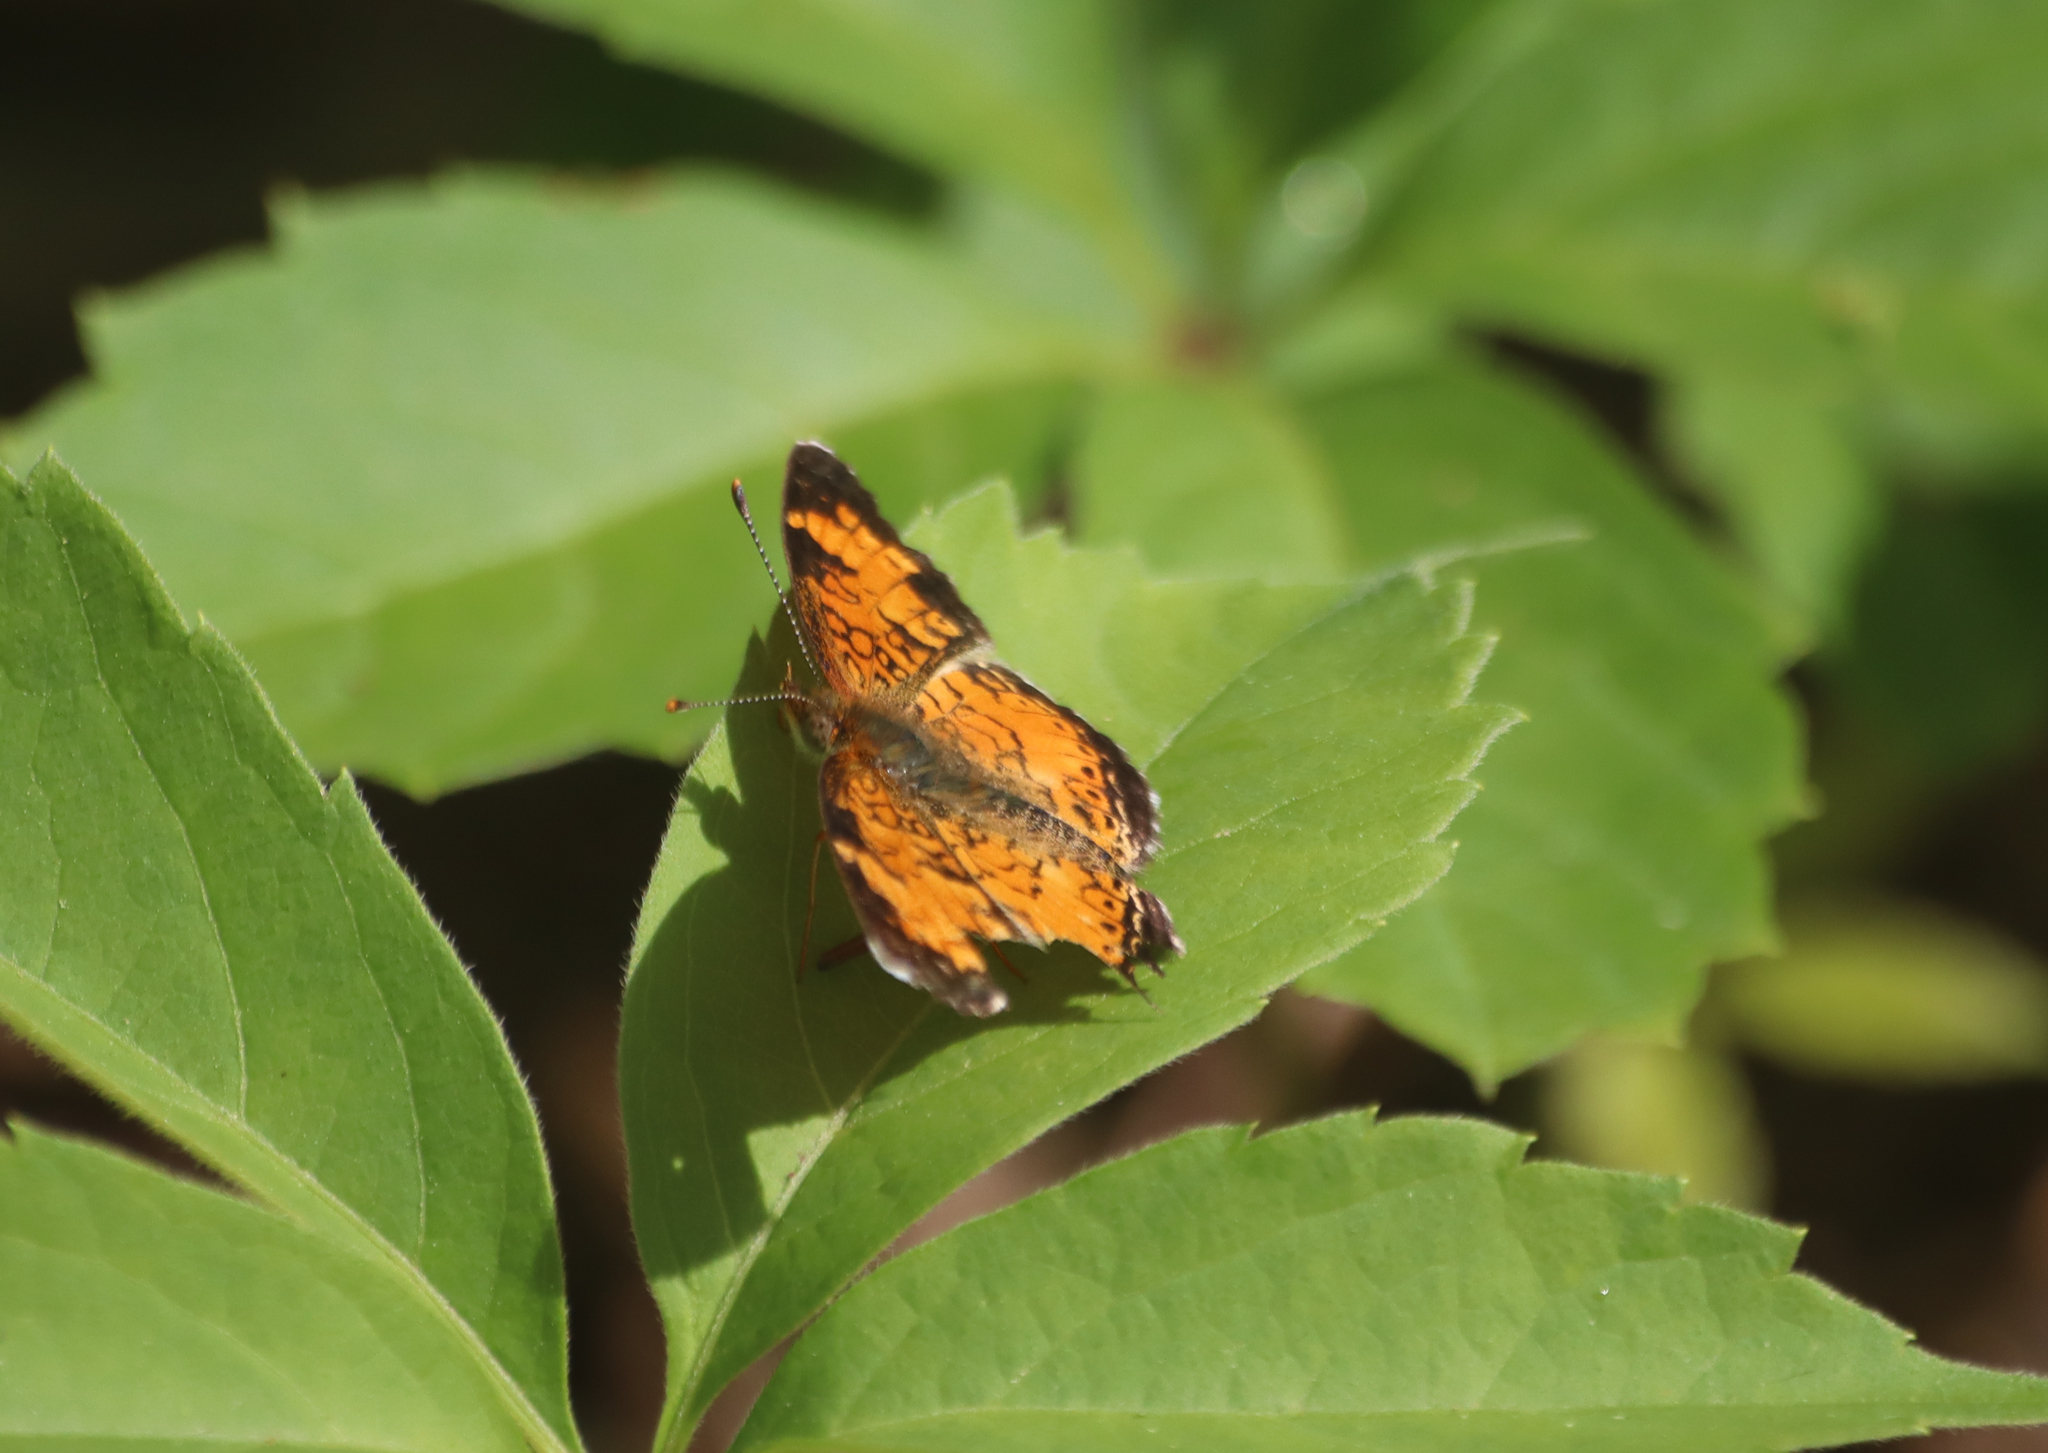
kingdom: Animalia
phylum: Arthropoda
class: Insecta
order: Lepidoptera
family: Nymphalidae
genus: Phyciodes
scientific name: Phyciodes tharos
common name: Pearl crescent
